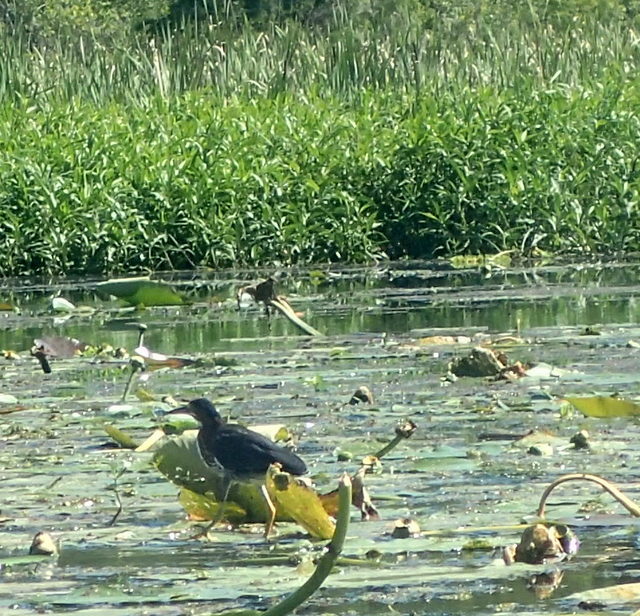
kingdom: Animalia
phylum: Chordata
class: Aves
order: Pelecaniformes
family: Ardeidae
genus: Butorides
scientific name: Butorides virescens
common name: Green heron
